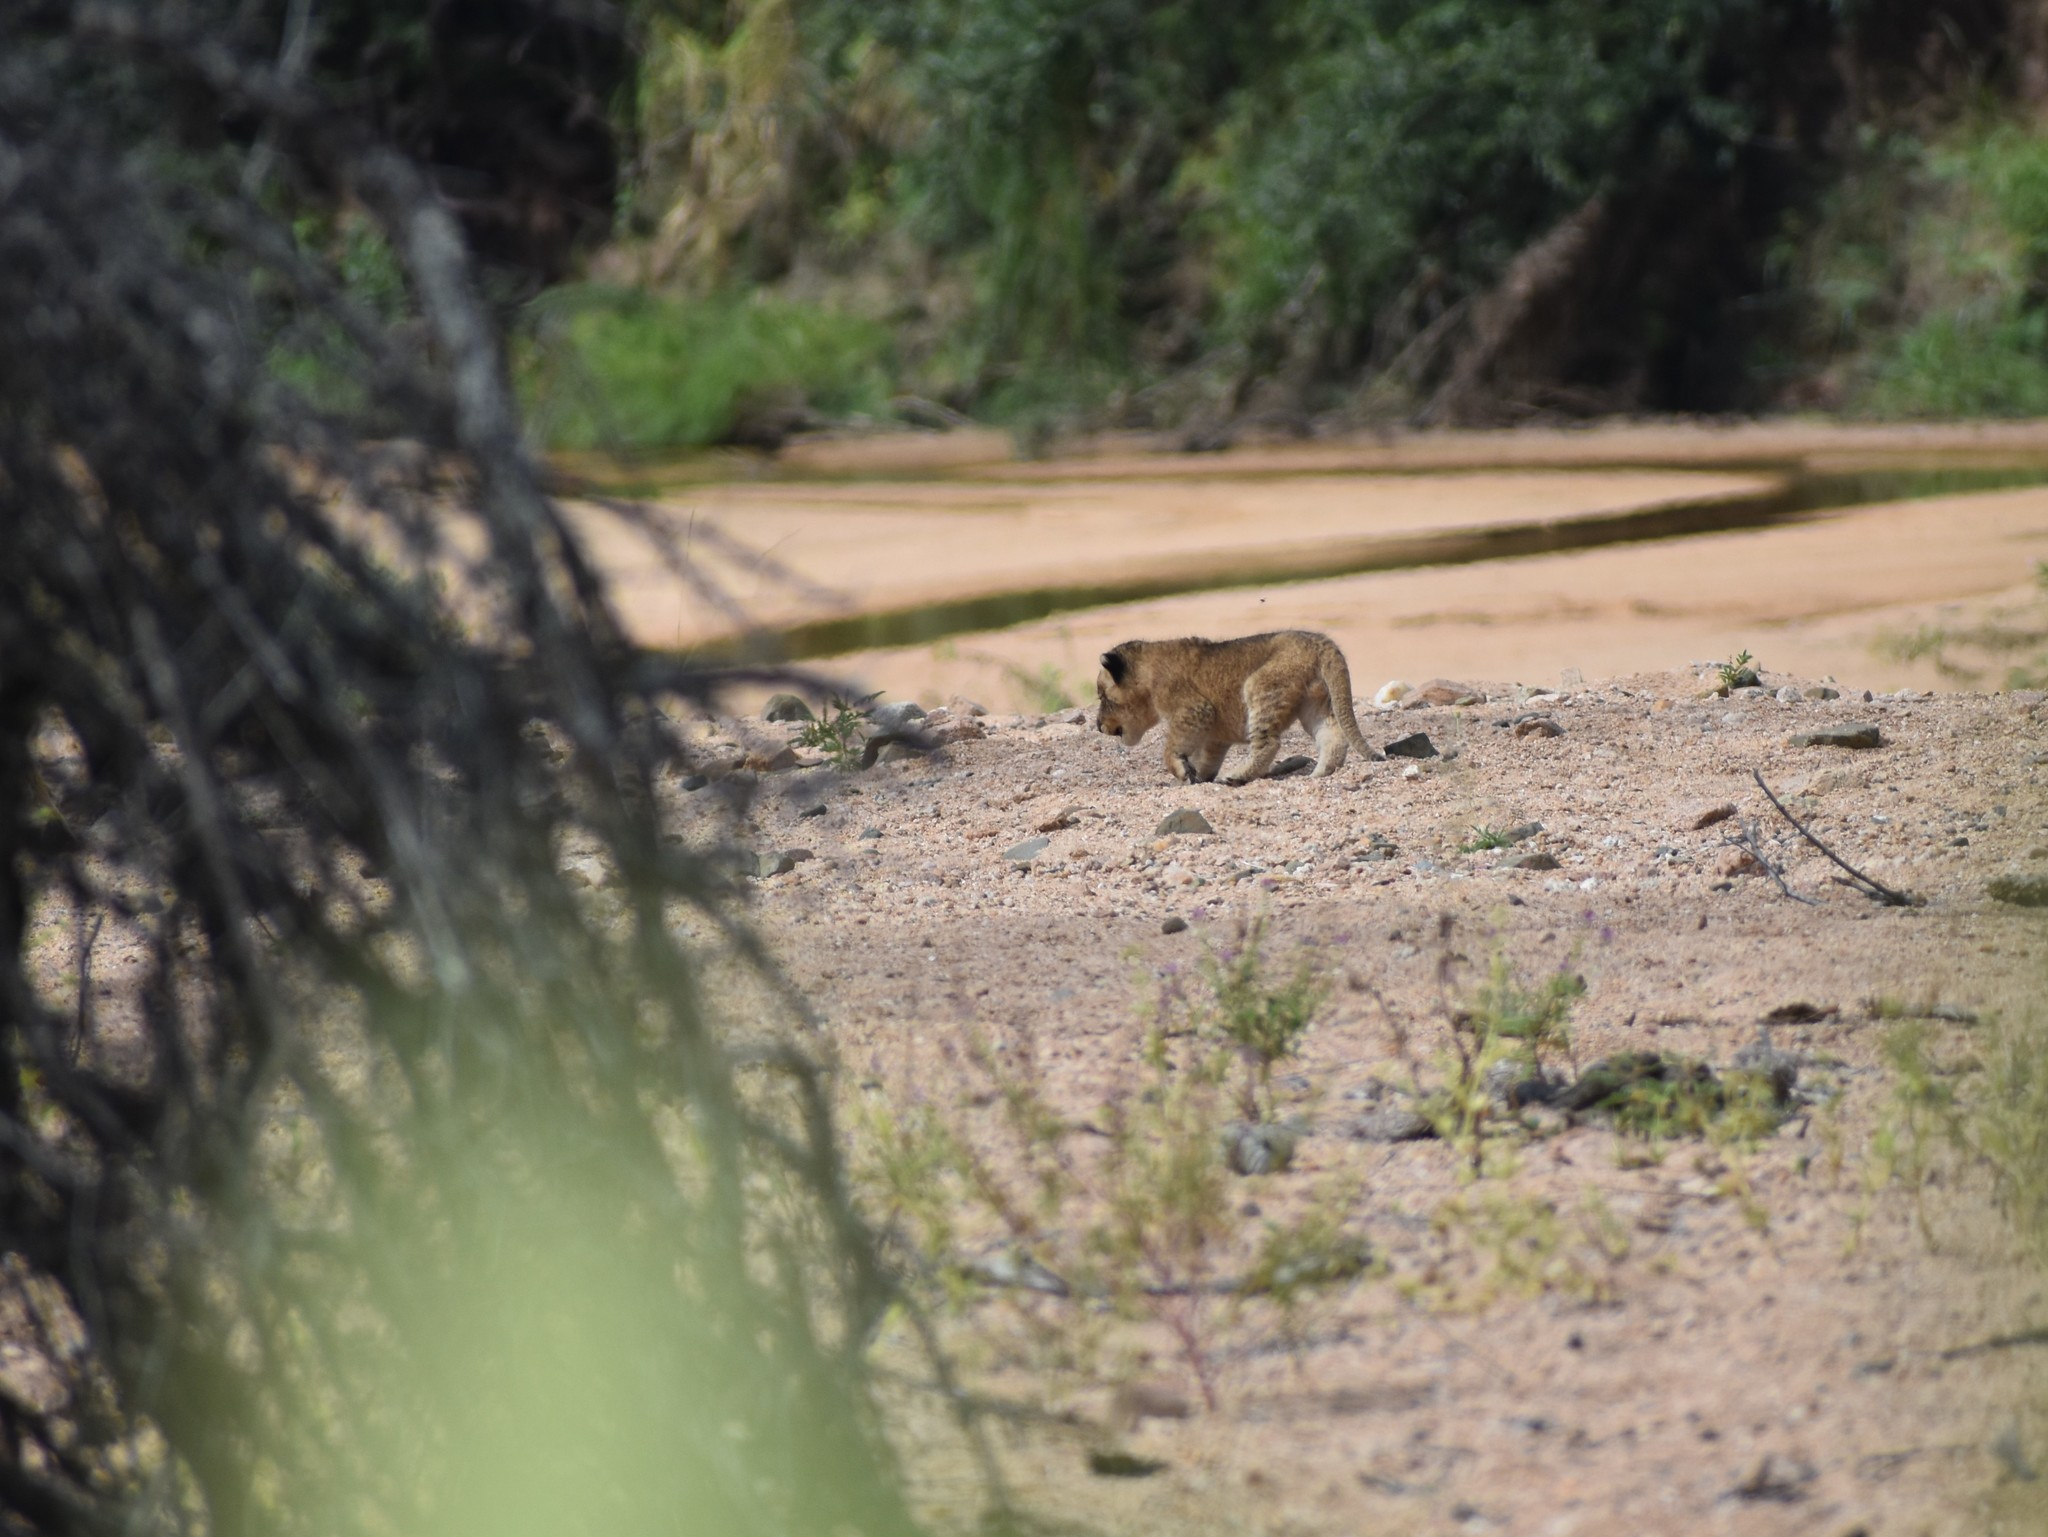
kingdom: Animalia
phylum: Chordata
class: Mammalia
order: Carnivora
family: Felidae
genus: Panthera
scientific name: Panthera leo
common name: Lion
